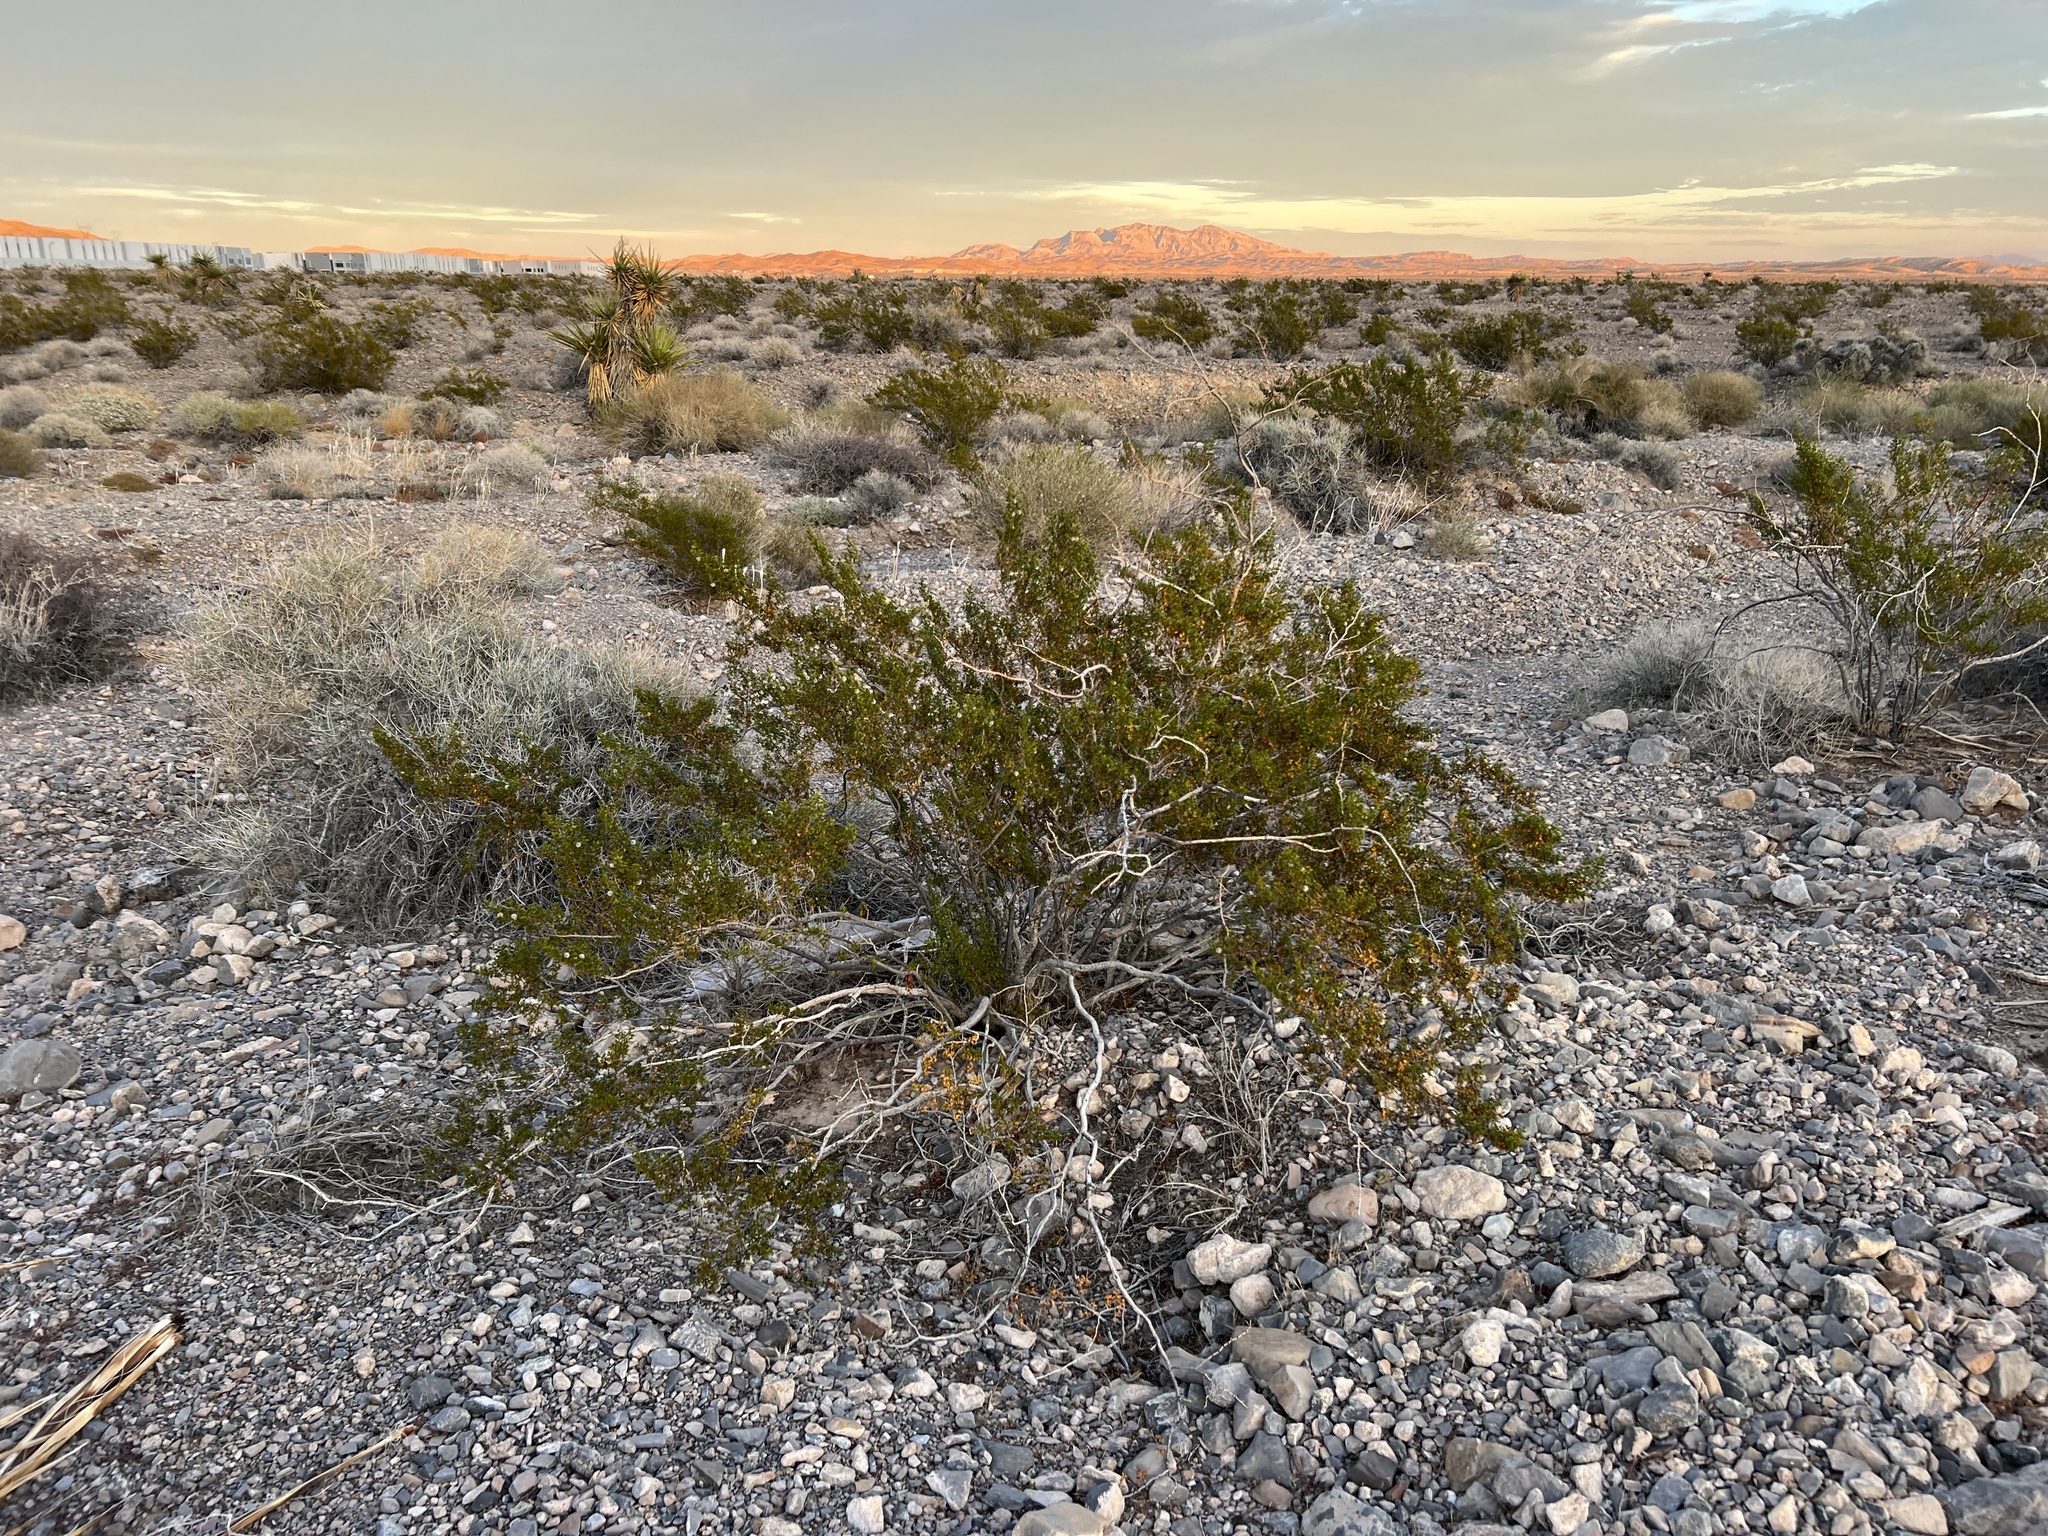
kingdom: Plantae
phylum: Tracheophyta
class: Magnoliopsida
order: Zygophyllales
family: Zygophyllaceae
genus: Larrea
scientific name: Larrea tridentata
